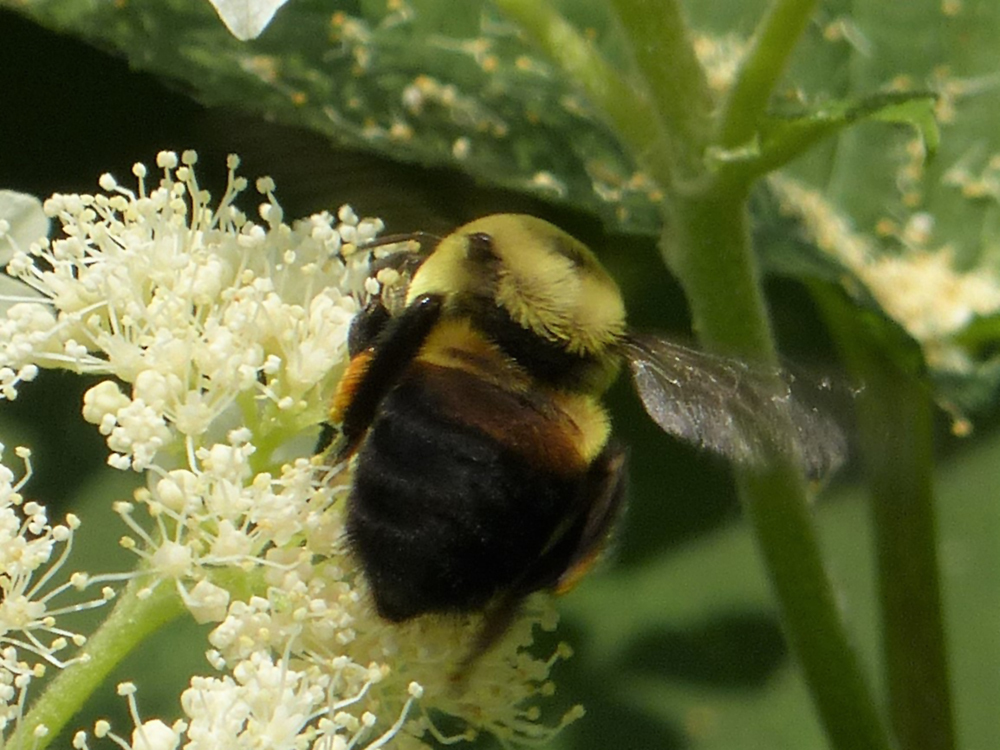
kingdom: Animalia
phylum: Arthropoda
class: Insecta
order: Hymenoptera
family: Apidae
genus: Bombus
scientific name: Bombus griseocollis
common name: Brown-belted bumble bee
